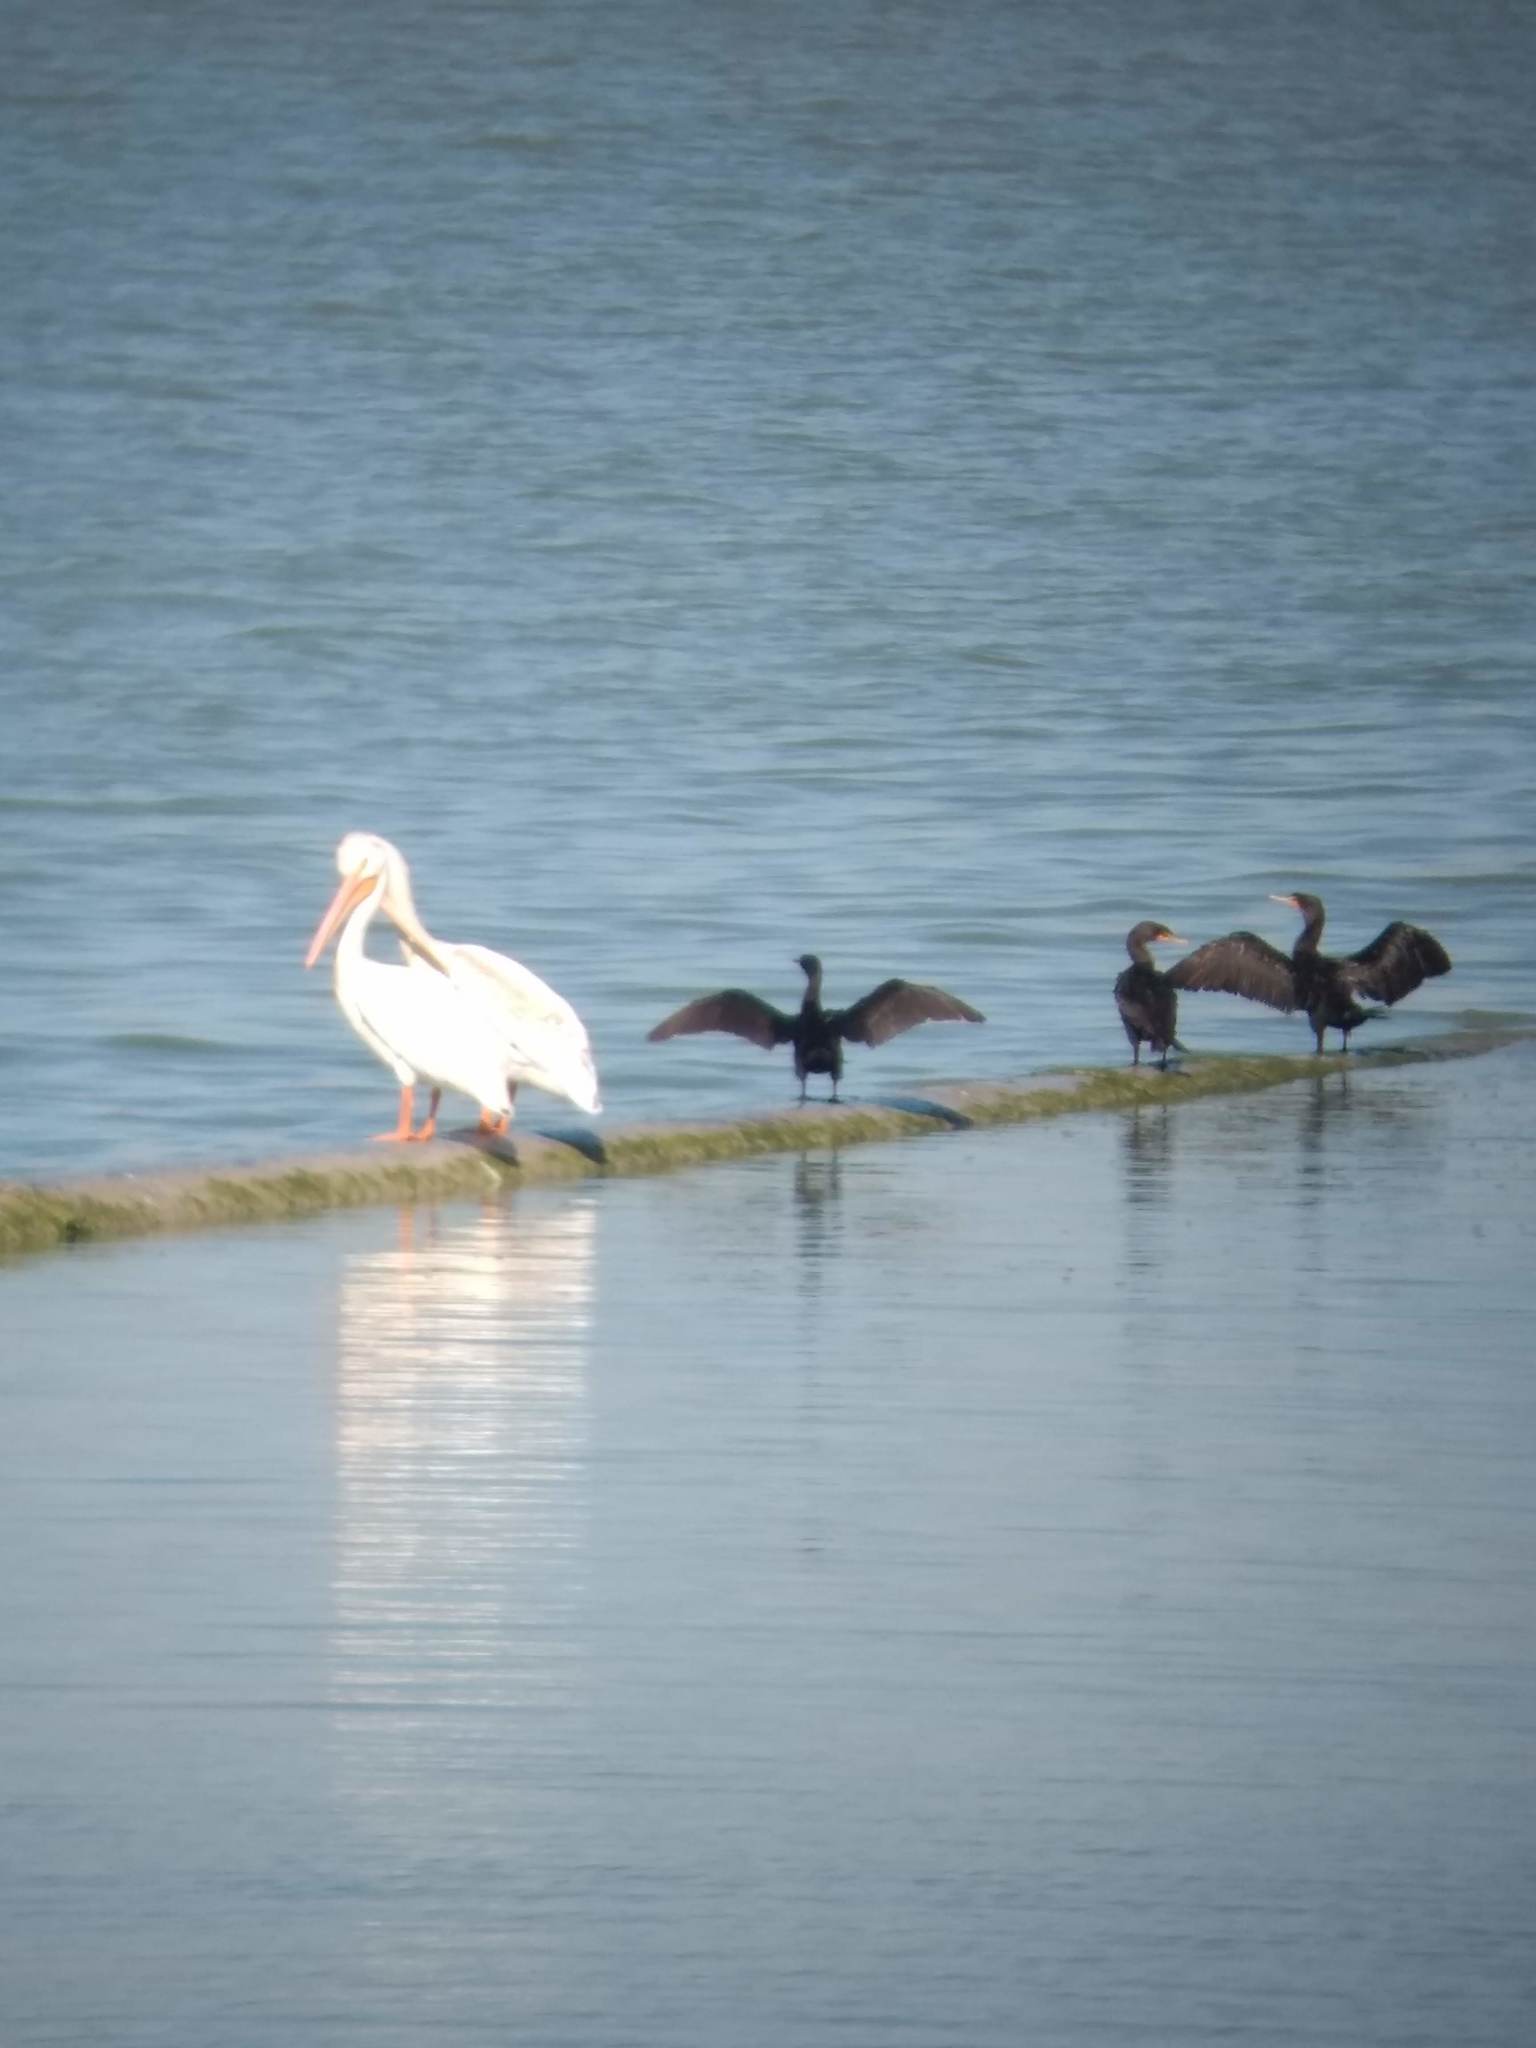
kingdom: Animalia
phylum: Chordata
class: Aves
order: Suliformes
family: Phalacrocoracidae
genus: Phalacrocorax
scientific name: Phalacrocorax auritus
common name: Double-crested cormorant
